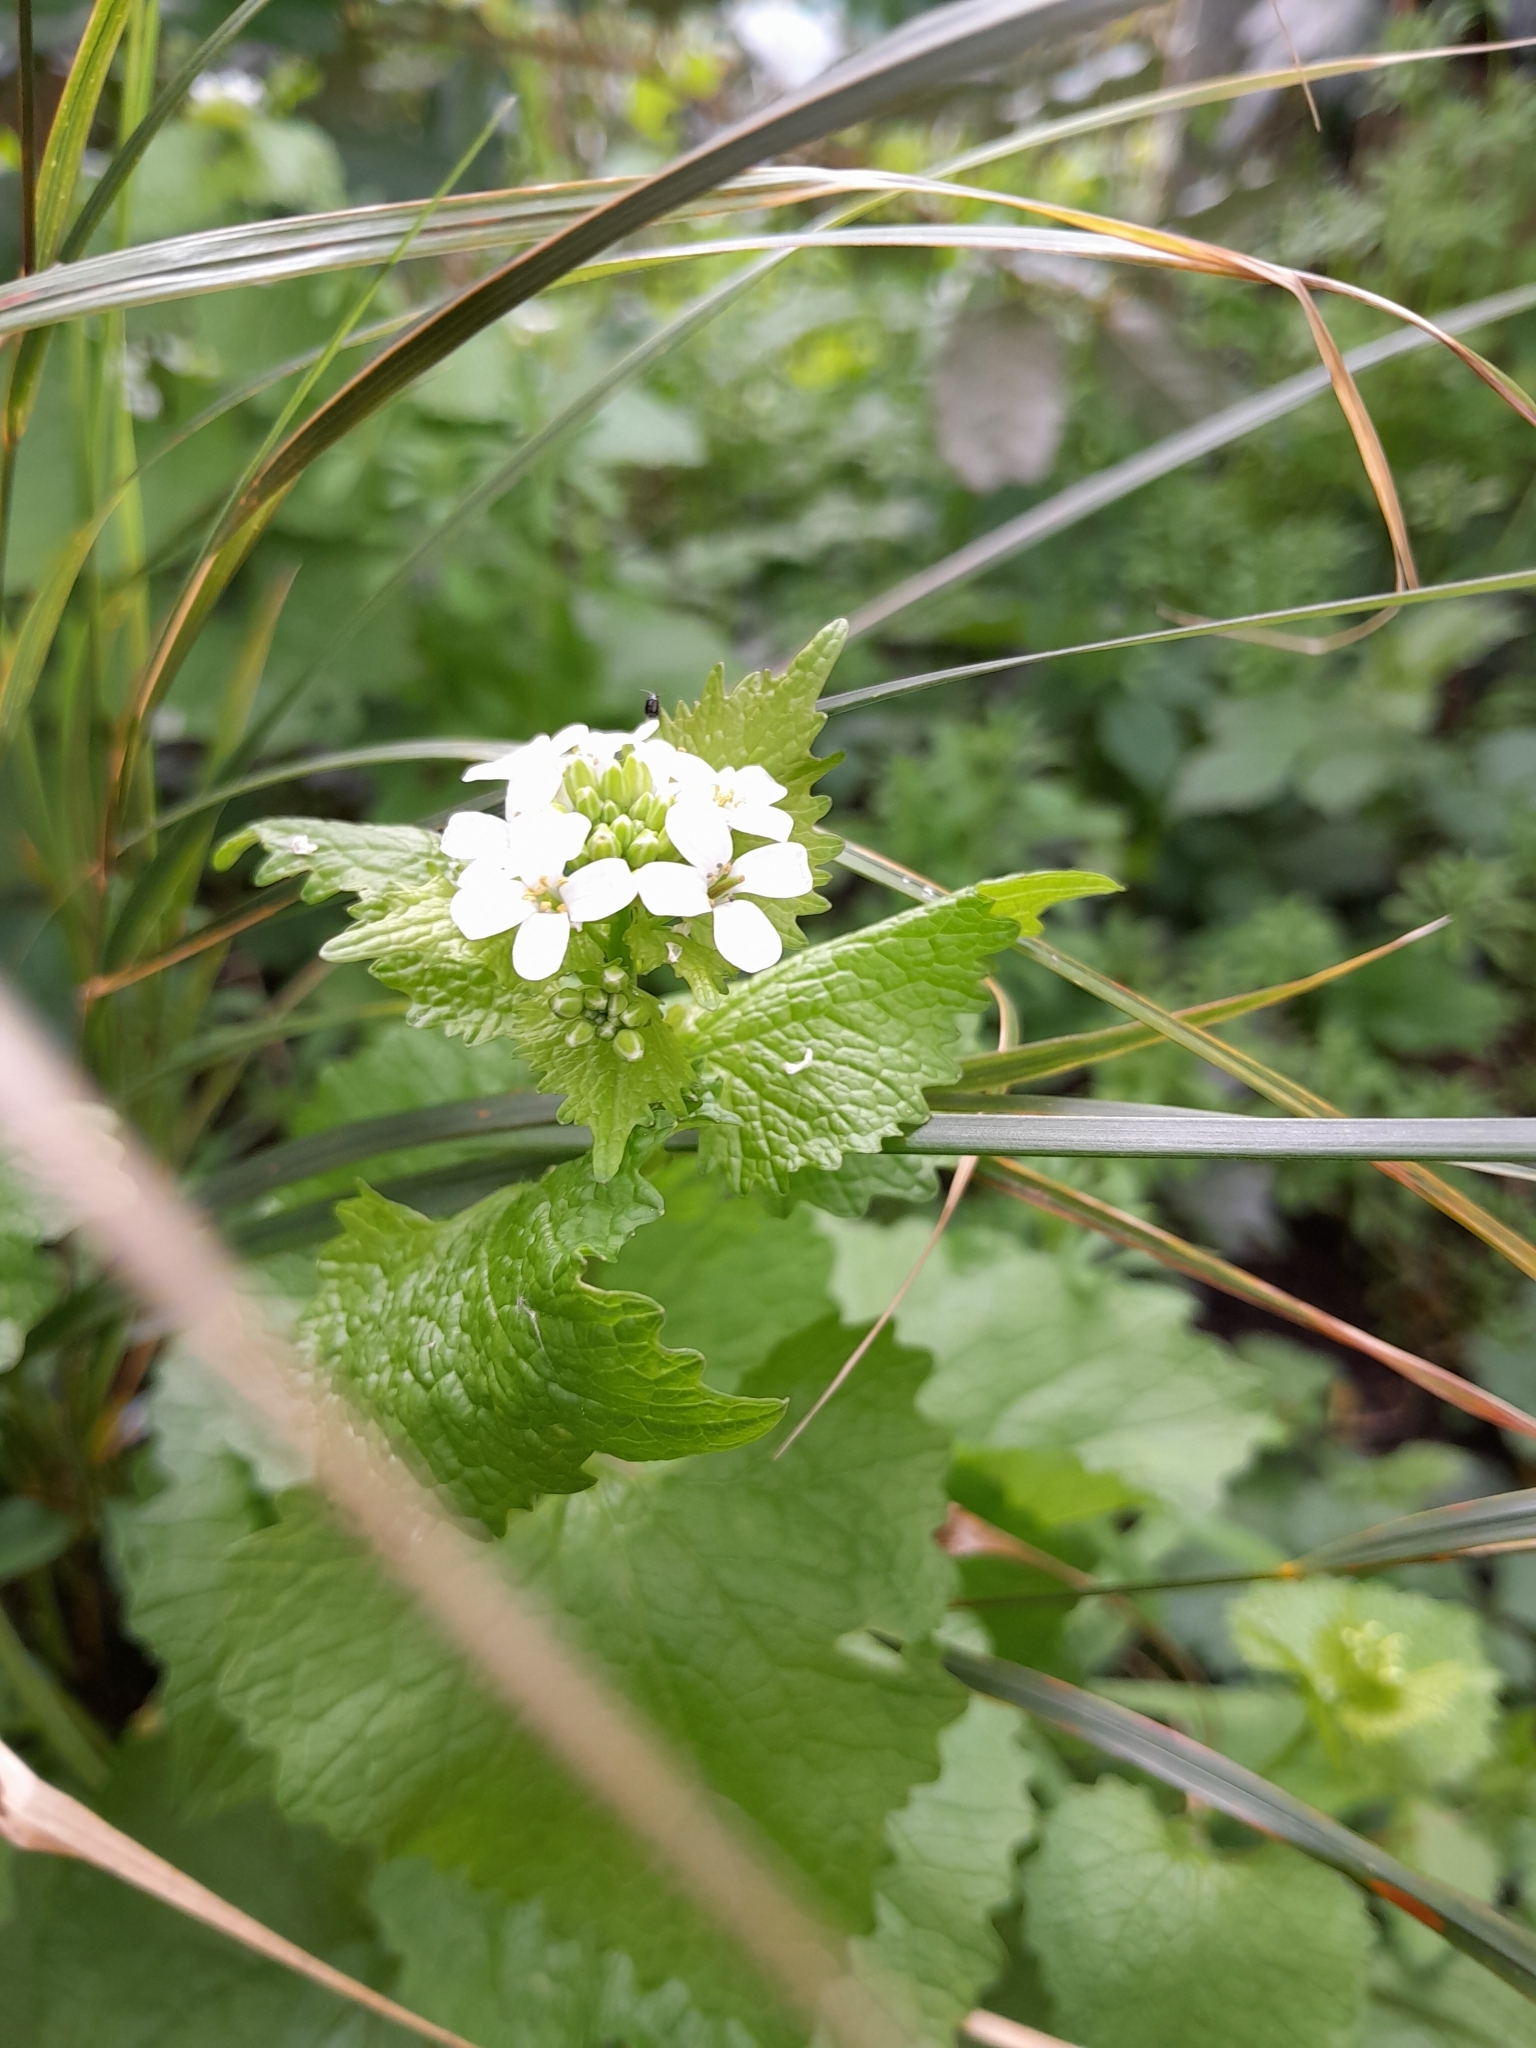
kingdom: Plantae
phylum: Tracheophyta
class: Magnoliopsida
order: Brassicales
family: Brassicaceae
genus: Alliaria
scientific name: Alliaria petiolata
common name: Garlic mustard
